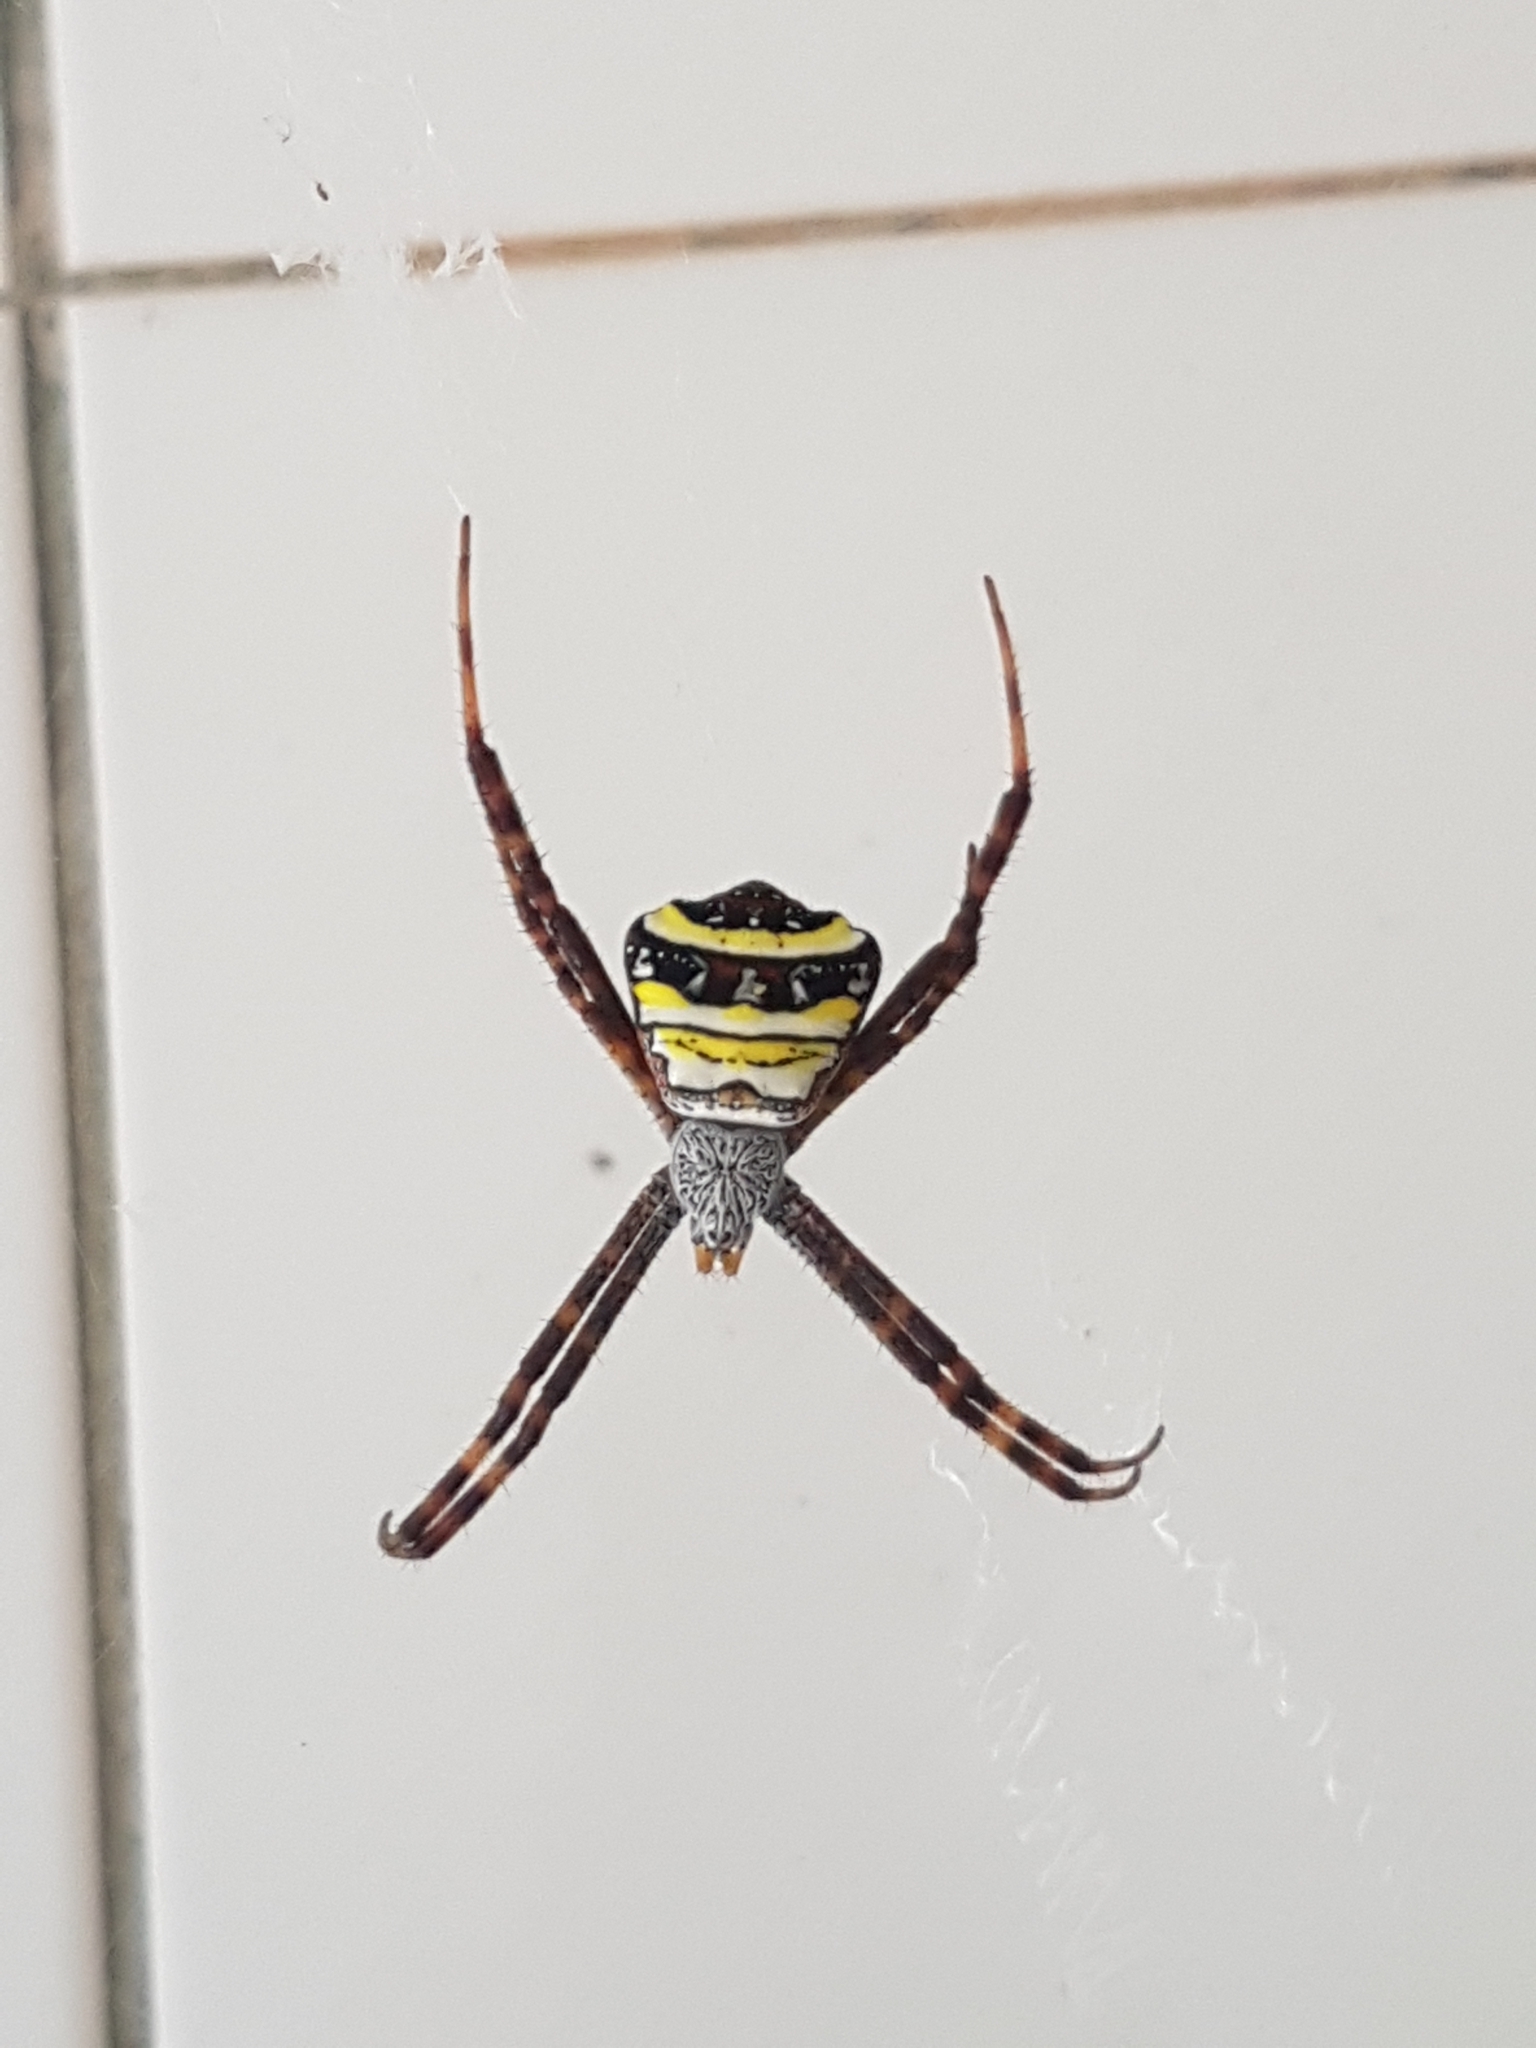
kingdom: Animalia
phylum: Arthropoda
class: Arachnida
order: Araneae
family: Araneidae
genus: Argiope
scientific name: Argiope aetheroides
